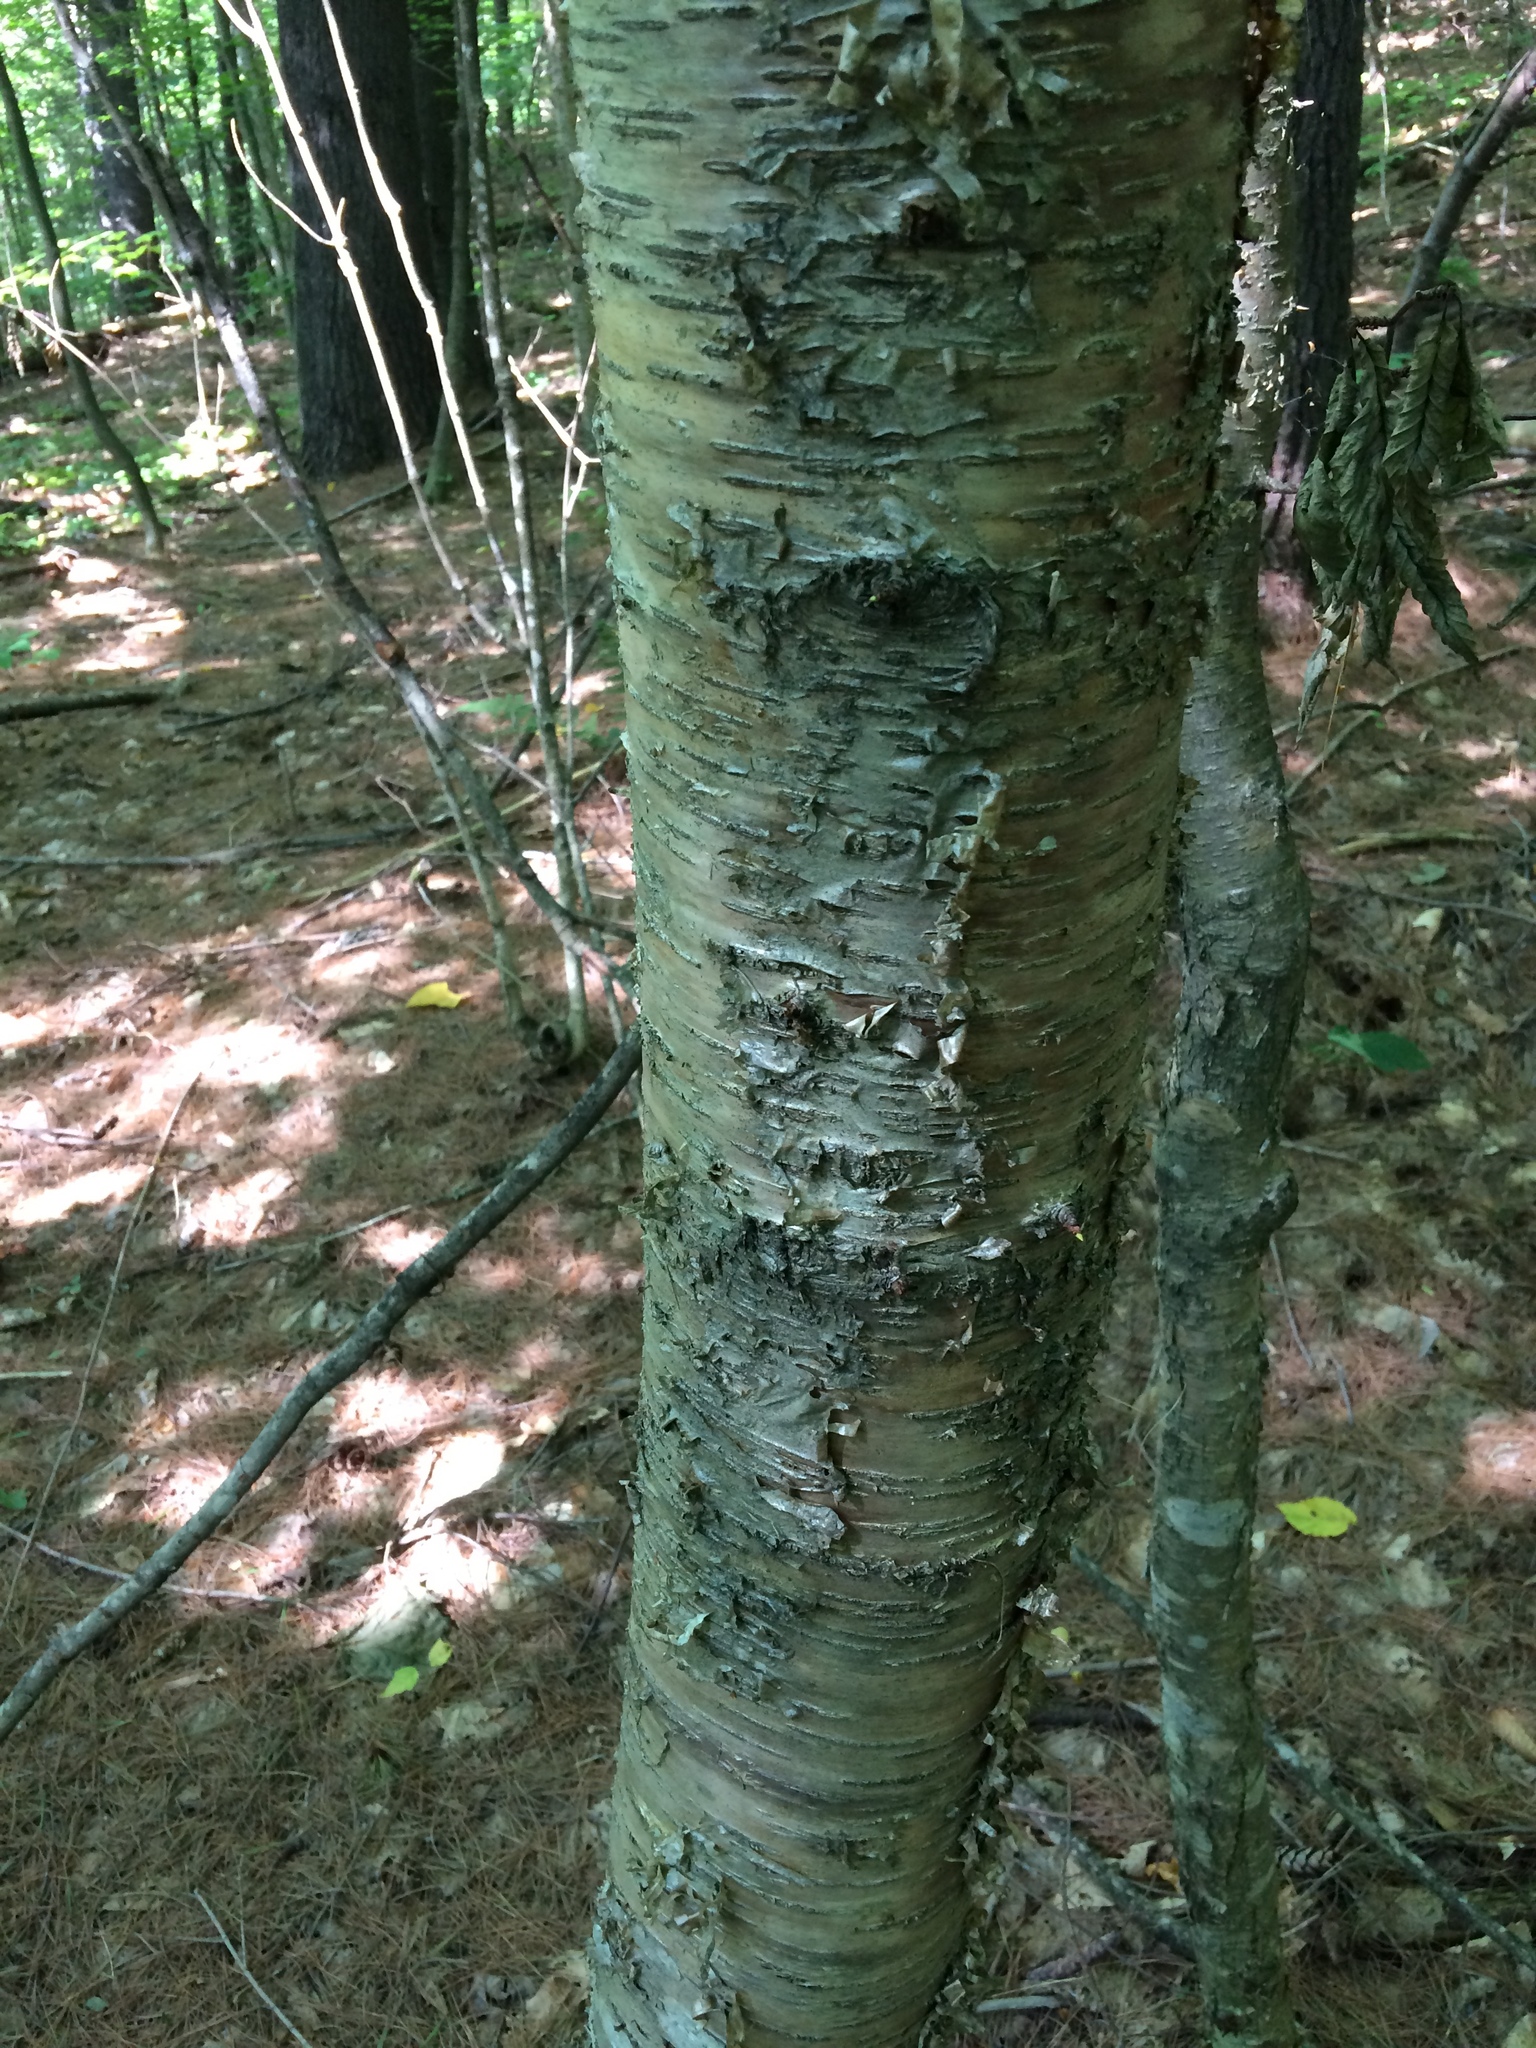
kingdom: Plantae
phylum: Tracheophyta
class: Magnoliopsida
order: Fagales
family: Betulaceae
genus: Betula
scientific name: Betula alleghaniensis
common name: Yellow birch
